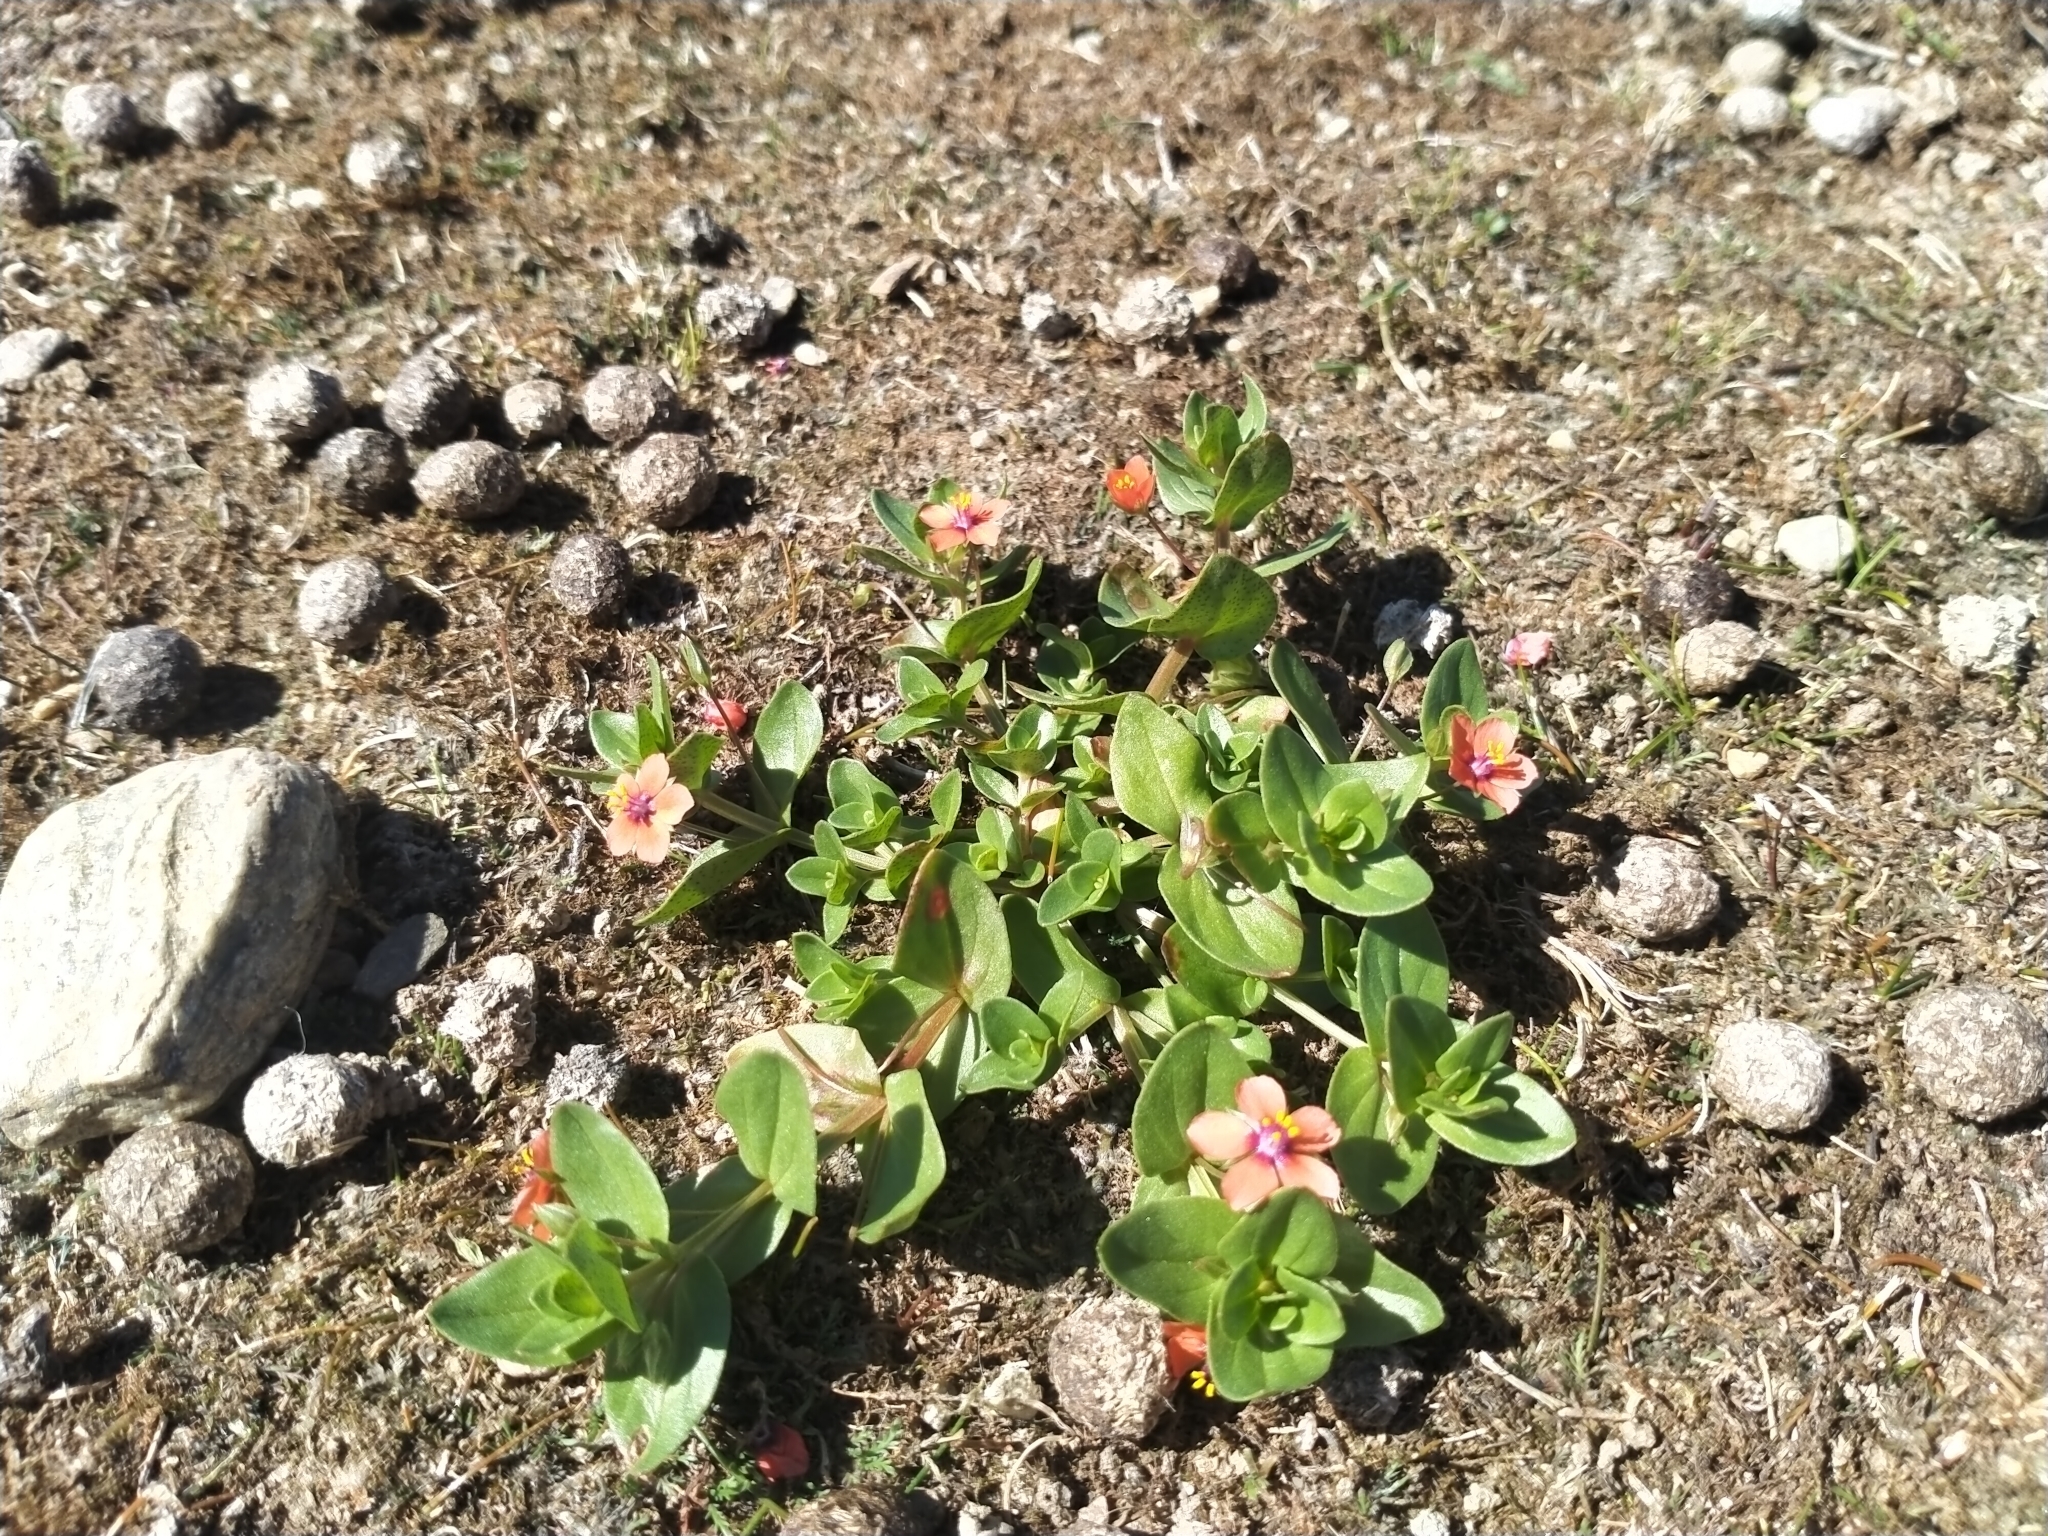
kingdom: Plantae
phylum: Tracheophyta
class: Magnoliopsida
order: Ericales
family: Primulaceae
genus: Lysimachia
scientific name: Lysimachia arvensis
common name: Scarlet pimpernel
